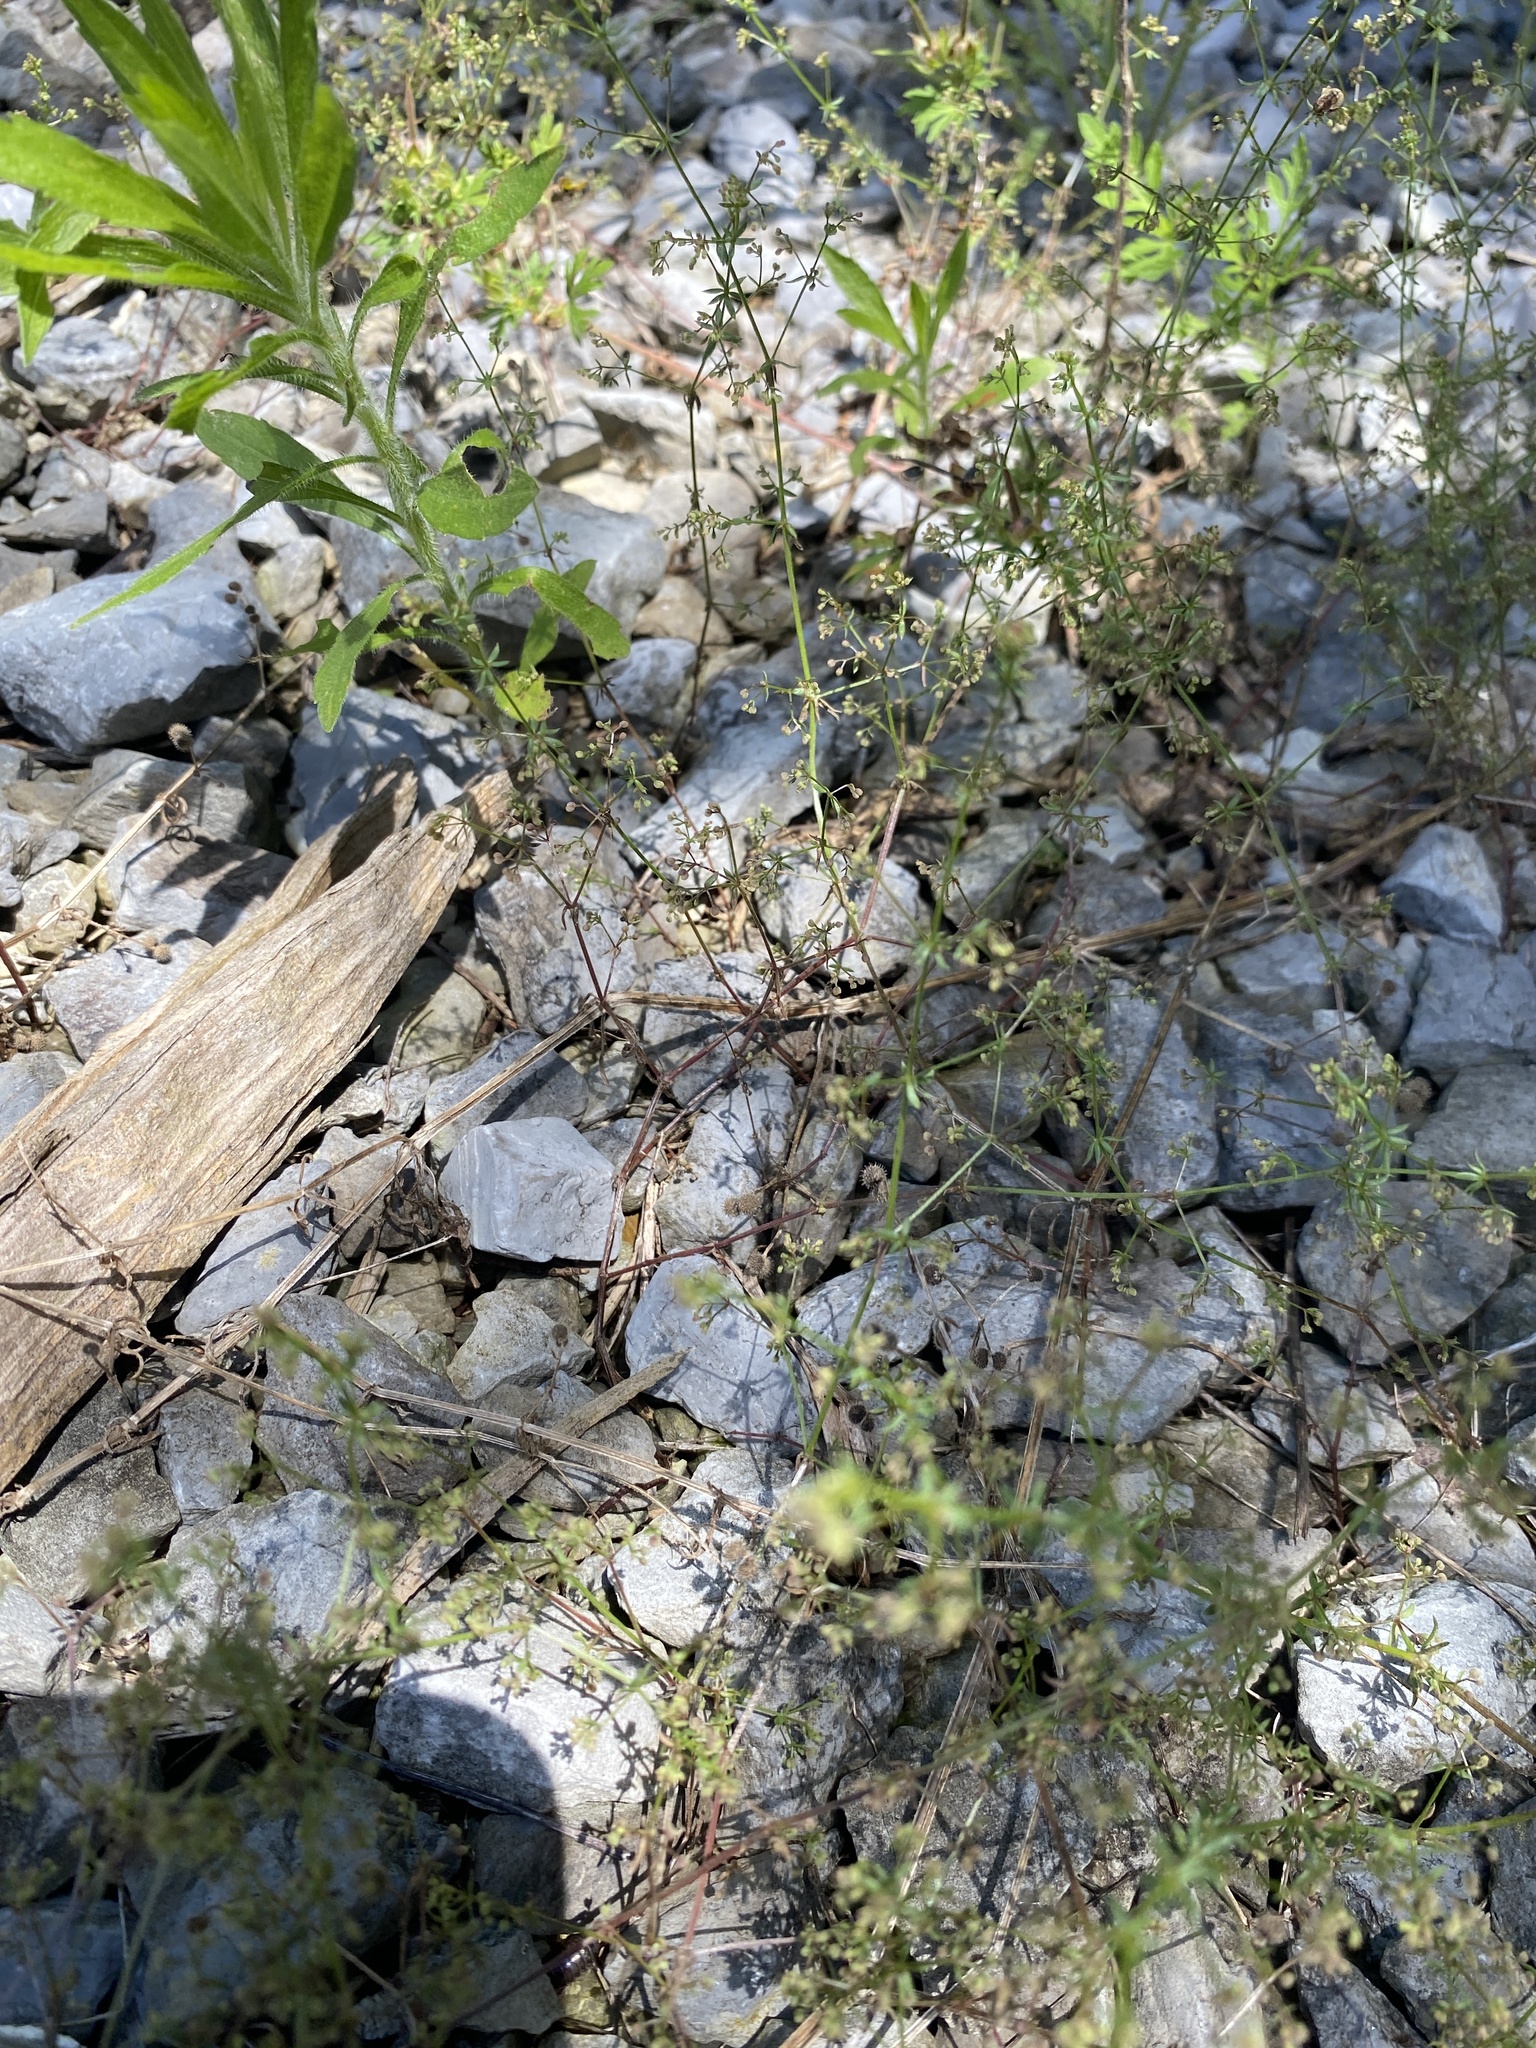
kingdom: Plantae
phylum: Tracheophyta
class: Magnoliopsida
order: Gentianales
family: Rubiaceae
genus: Galium
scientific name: Galium divaricatum
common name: Lamarck's bedstraw
